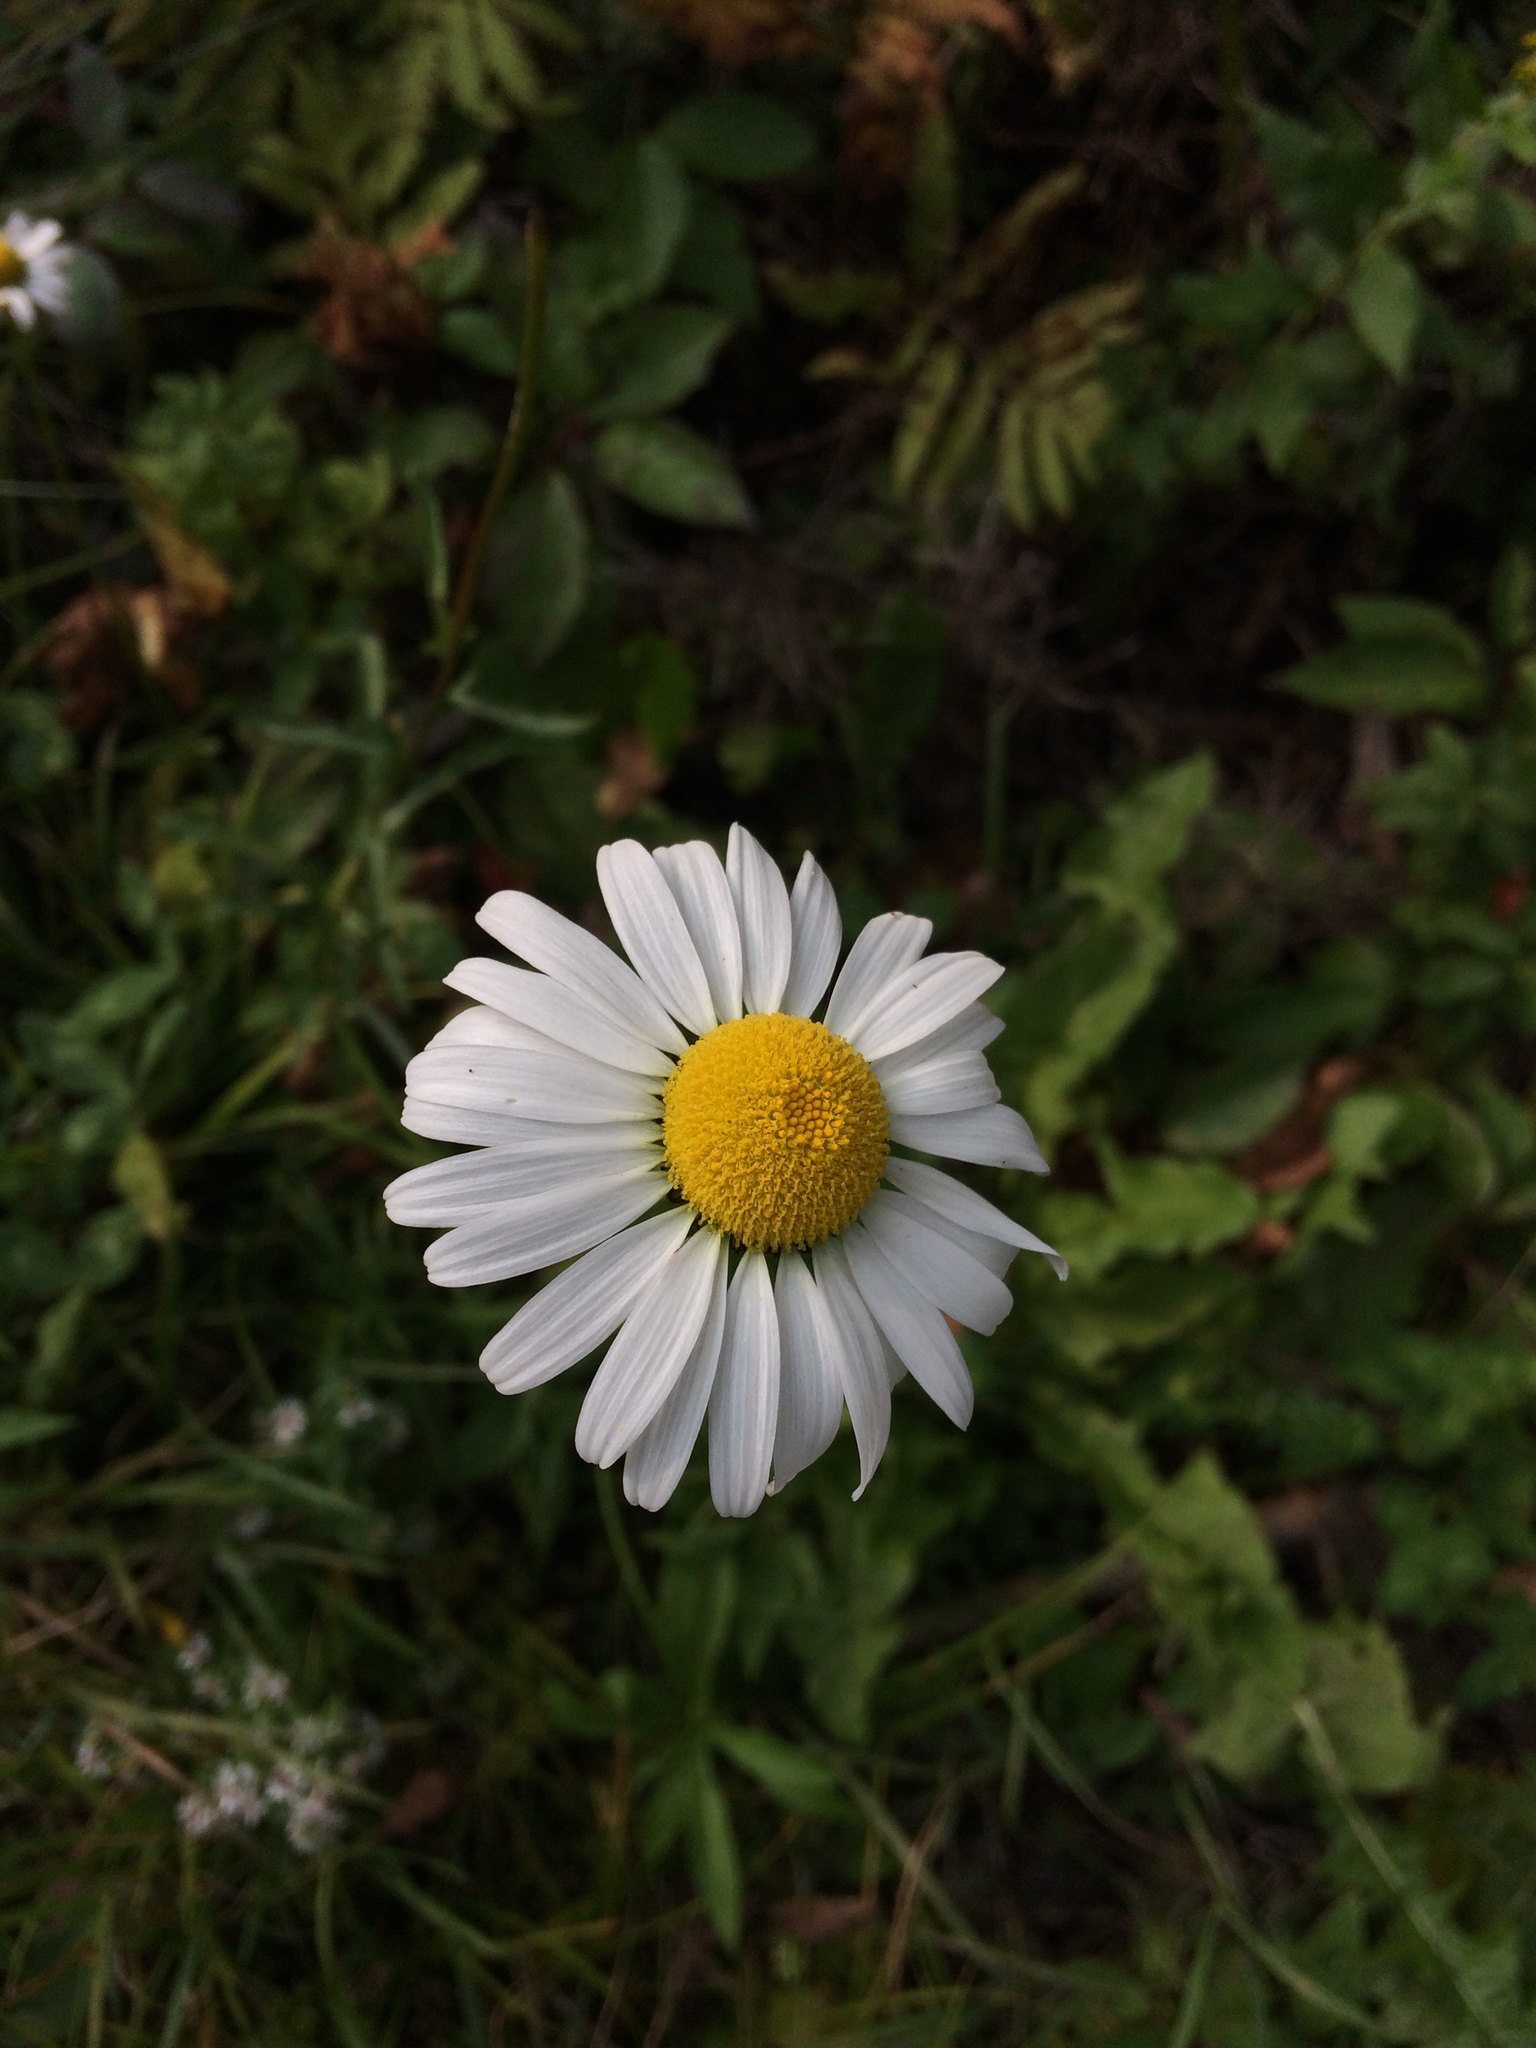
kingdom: Plantae
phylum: Tracheophyta
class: Magnoliopsida
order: Asterales
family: Asteraceae
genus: Leucanthemum
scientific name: Leucanthemum vulgare
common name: Oxeye daisy
